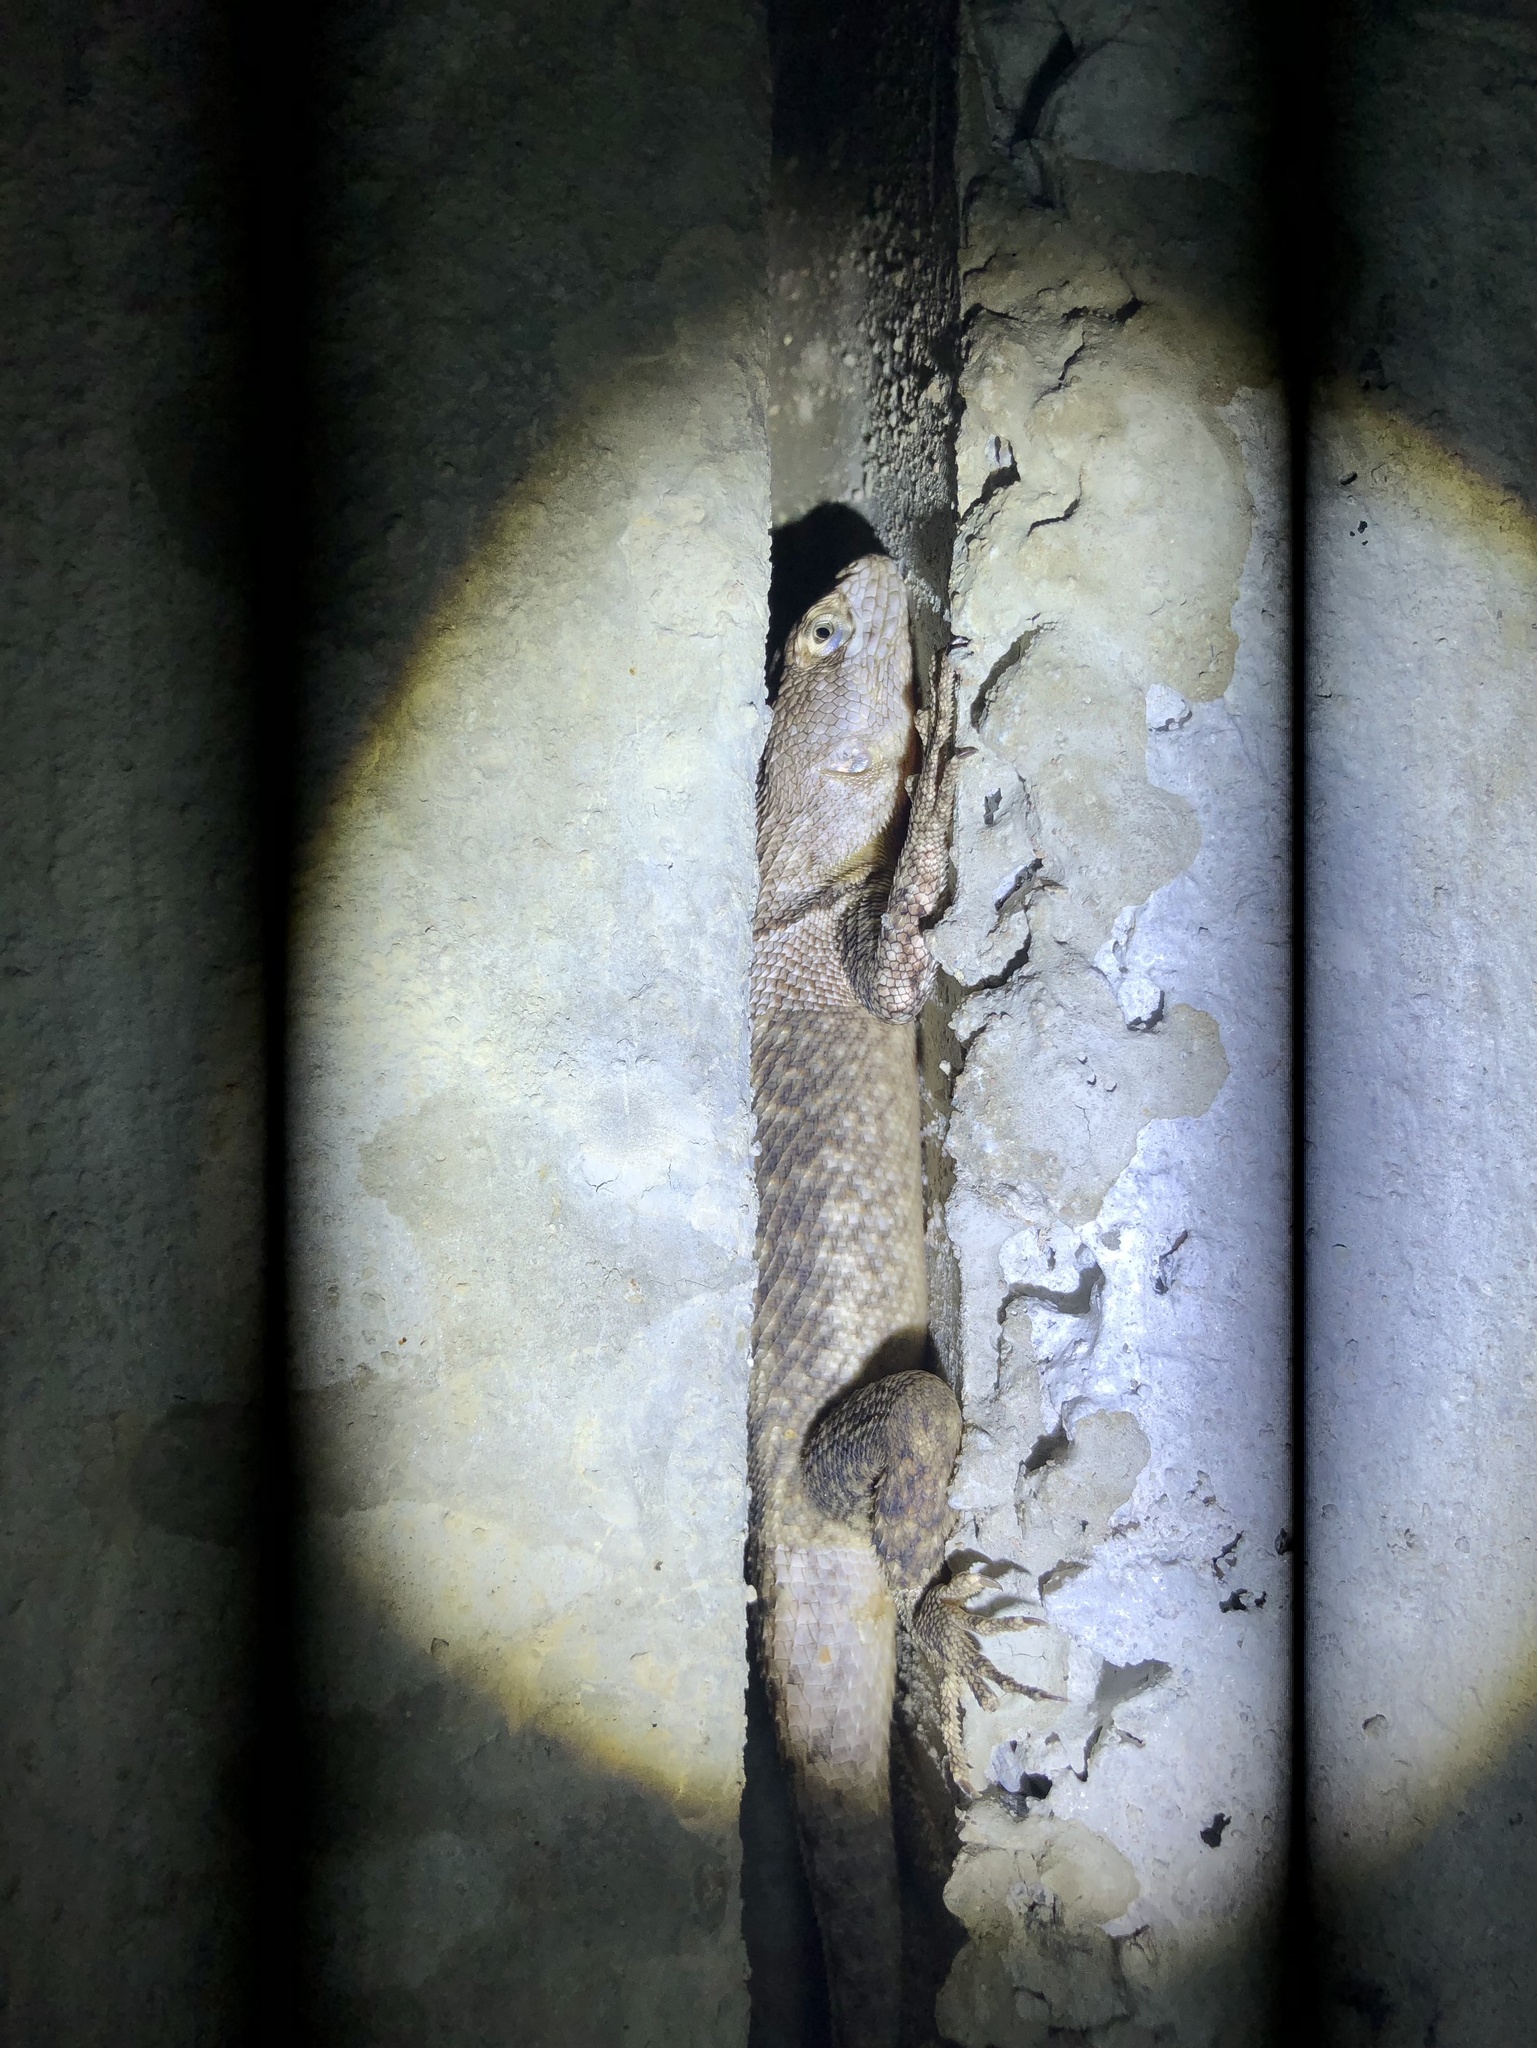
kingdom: Animalia
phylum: Chordata
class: Squamata
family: Tropiduridae
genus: Tropidurus
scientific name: Tropidurus hispidus
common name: Peters' lava lizard
